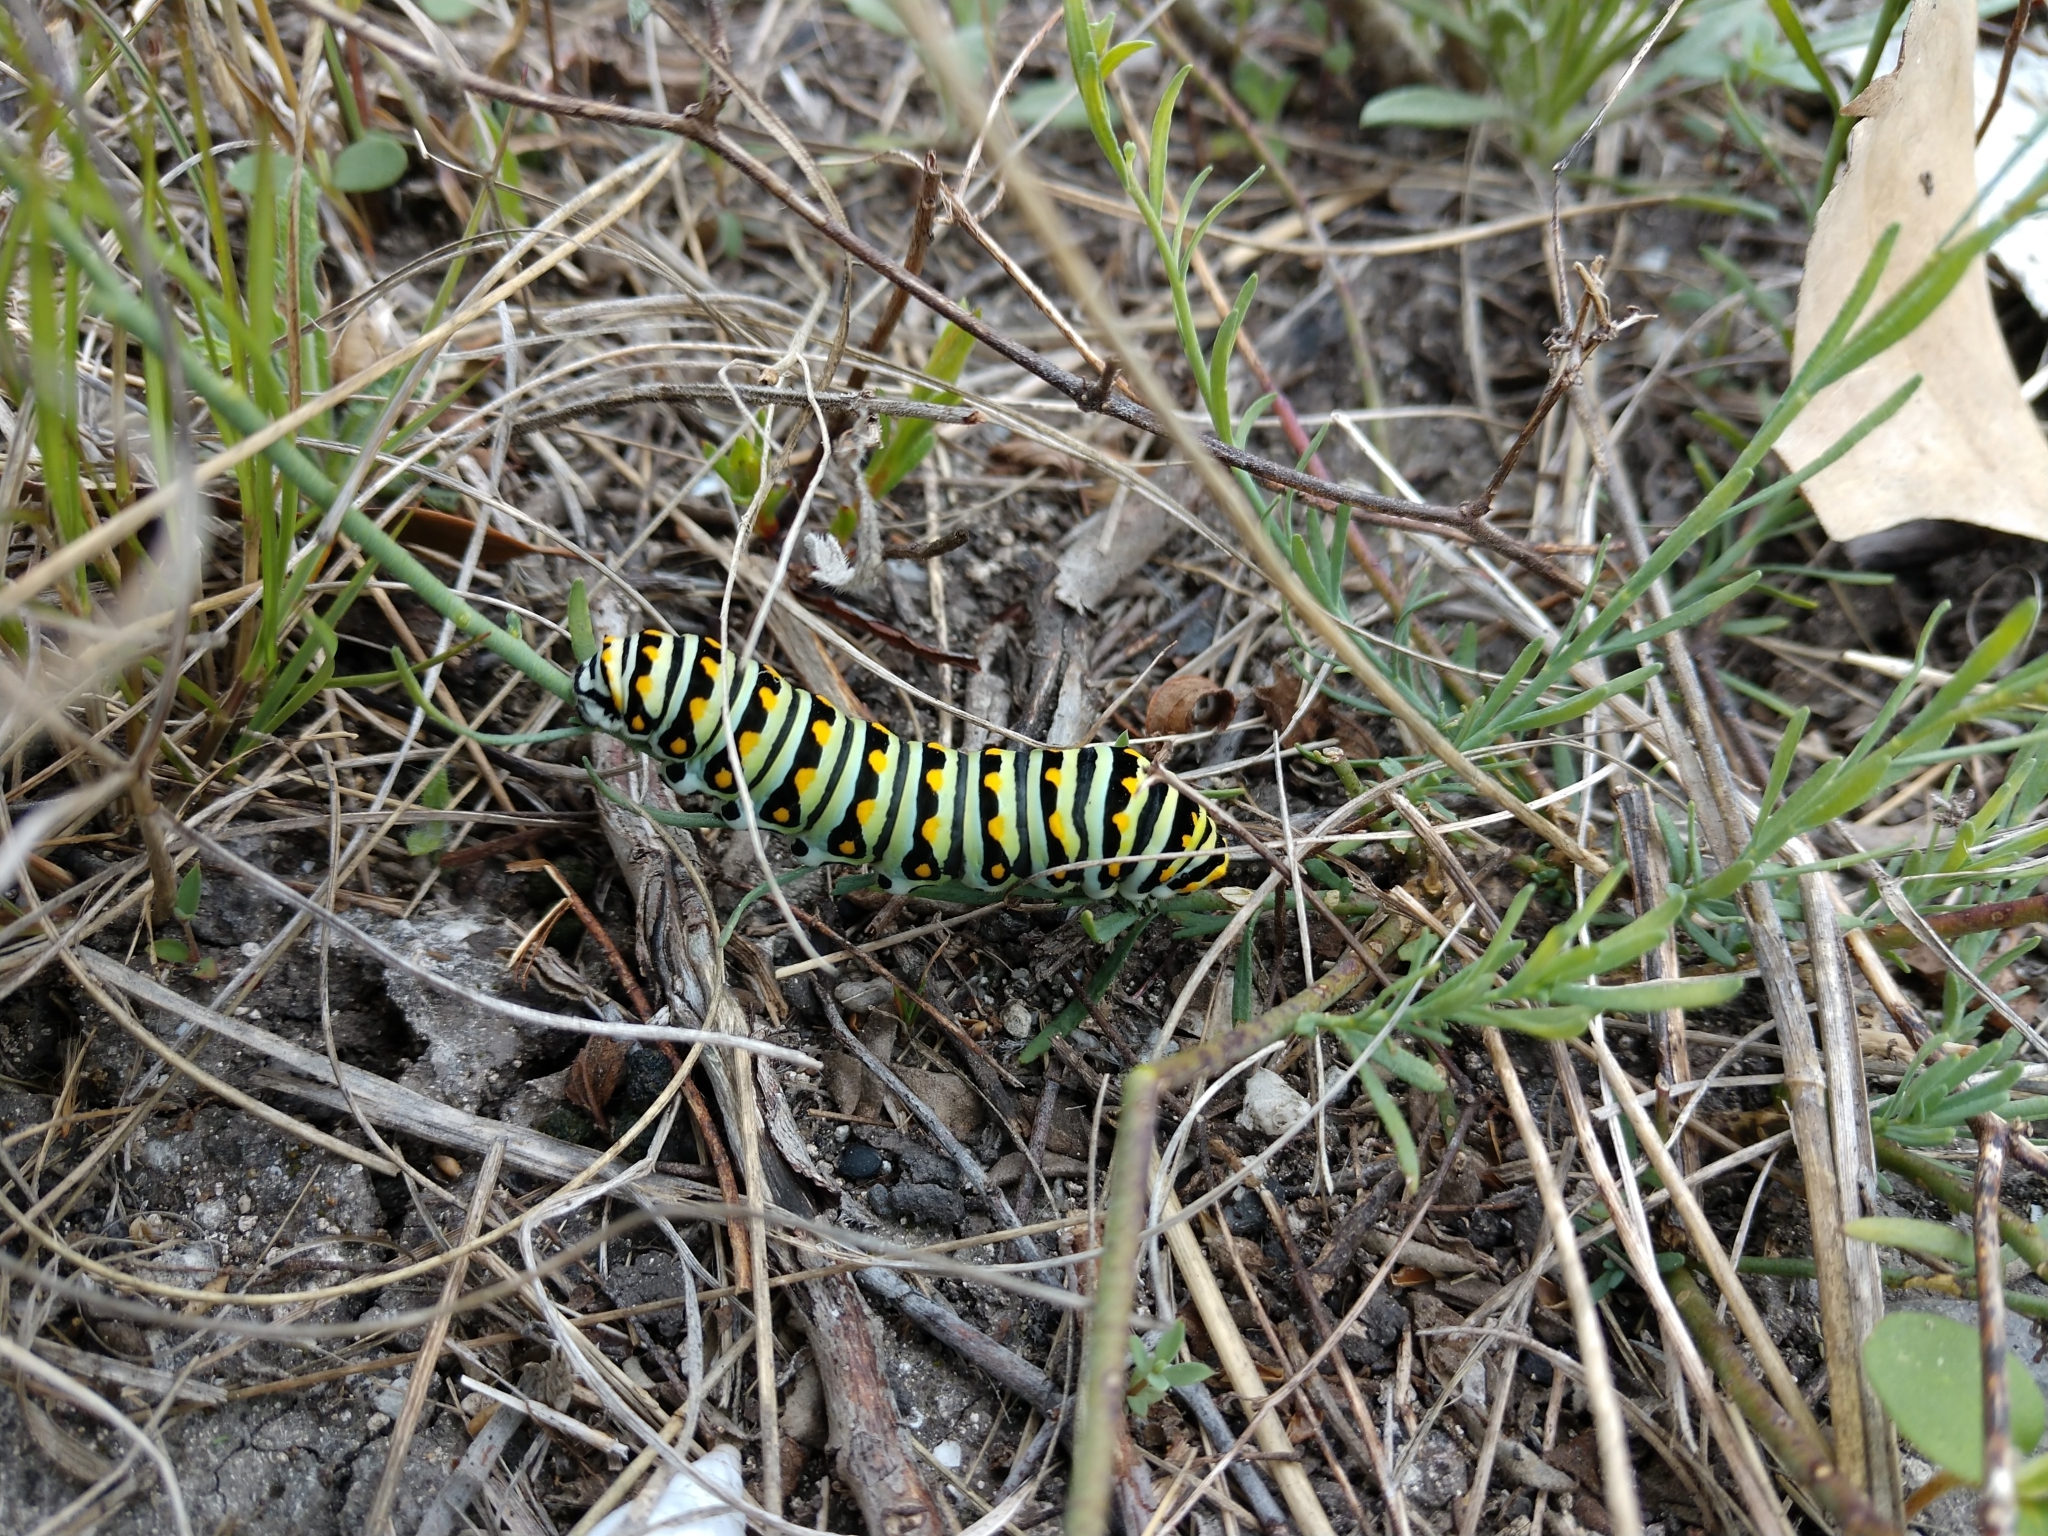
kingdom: Animalia
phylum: Arthropoda
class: Insecta
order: Lepidoptera
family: Papilionidae
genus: Papilio
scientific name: Papilio polyxenes
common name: Black swallowtail
